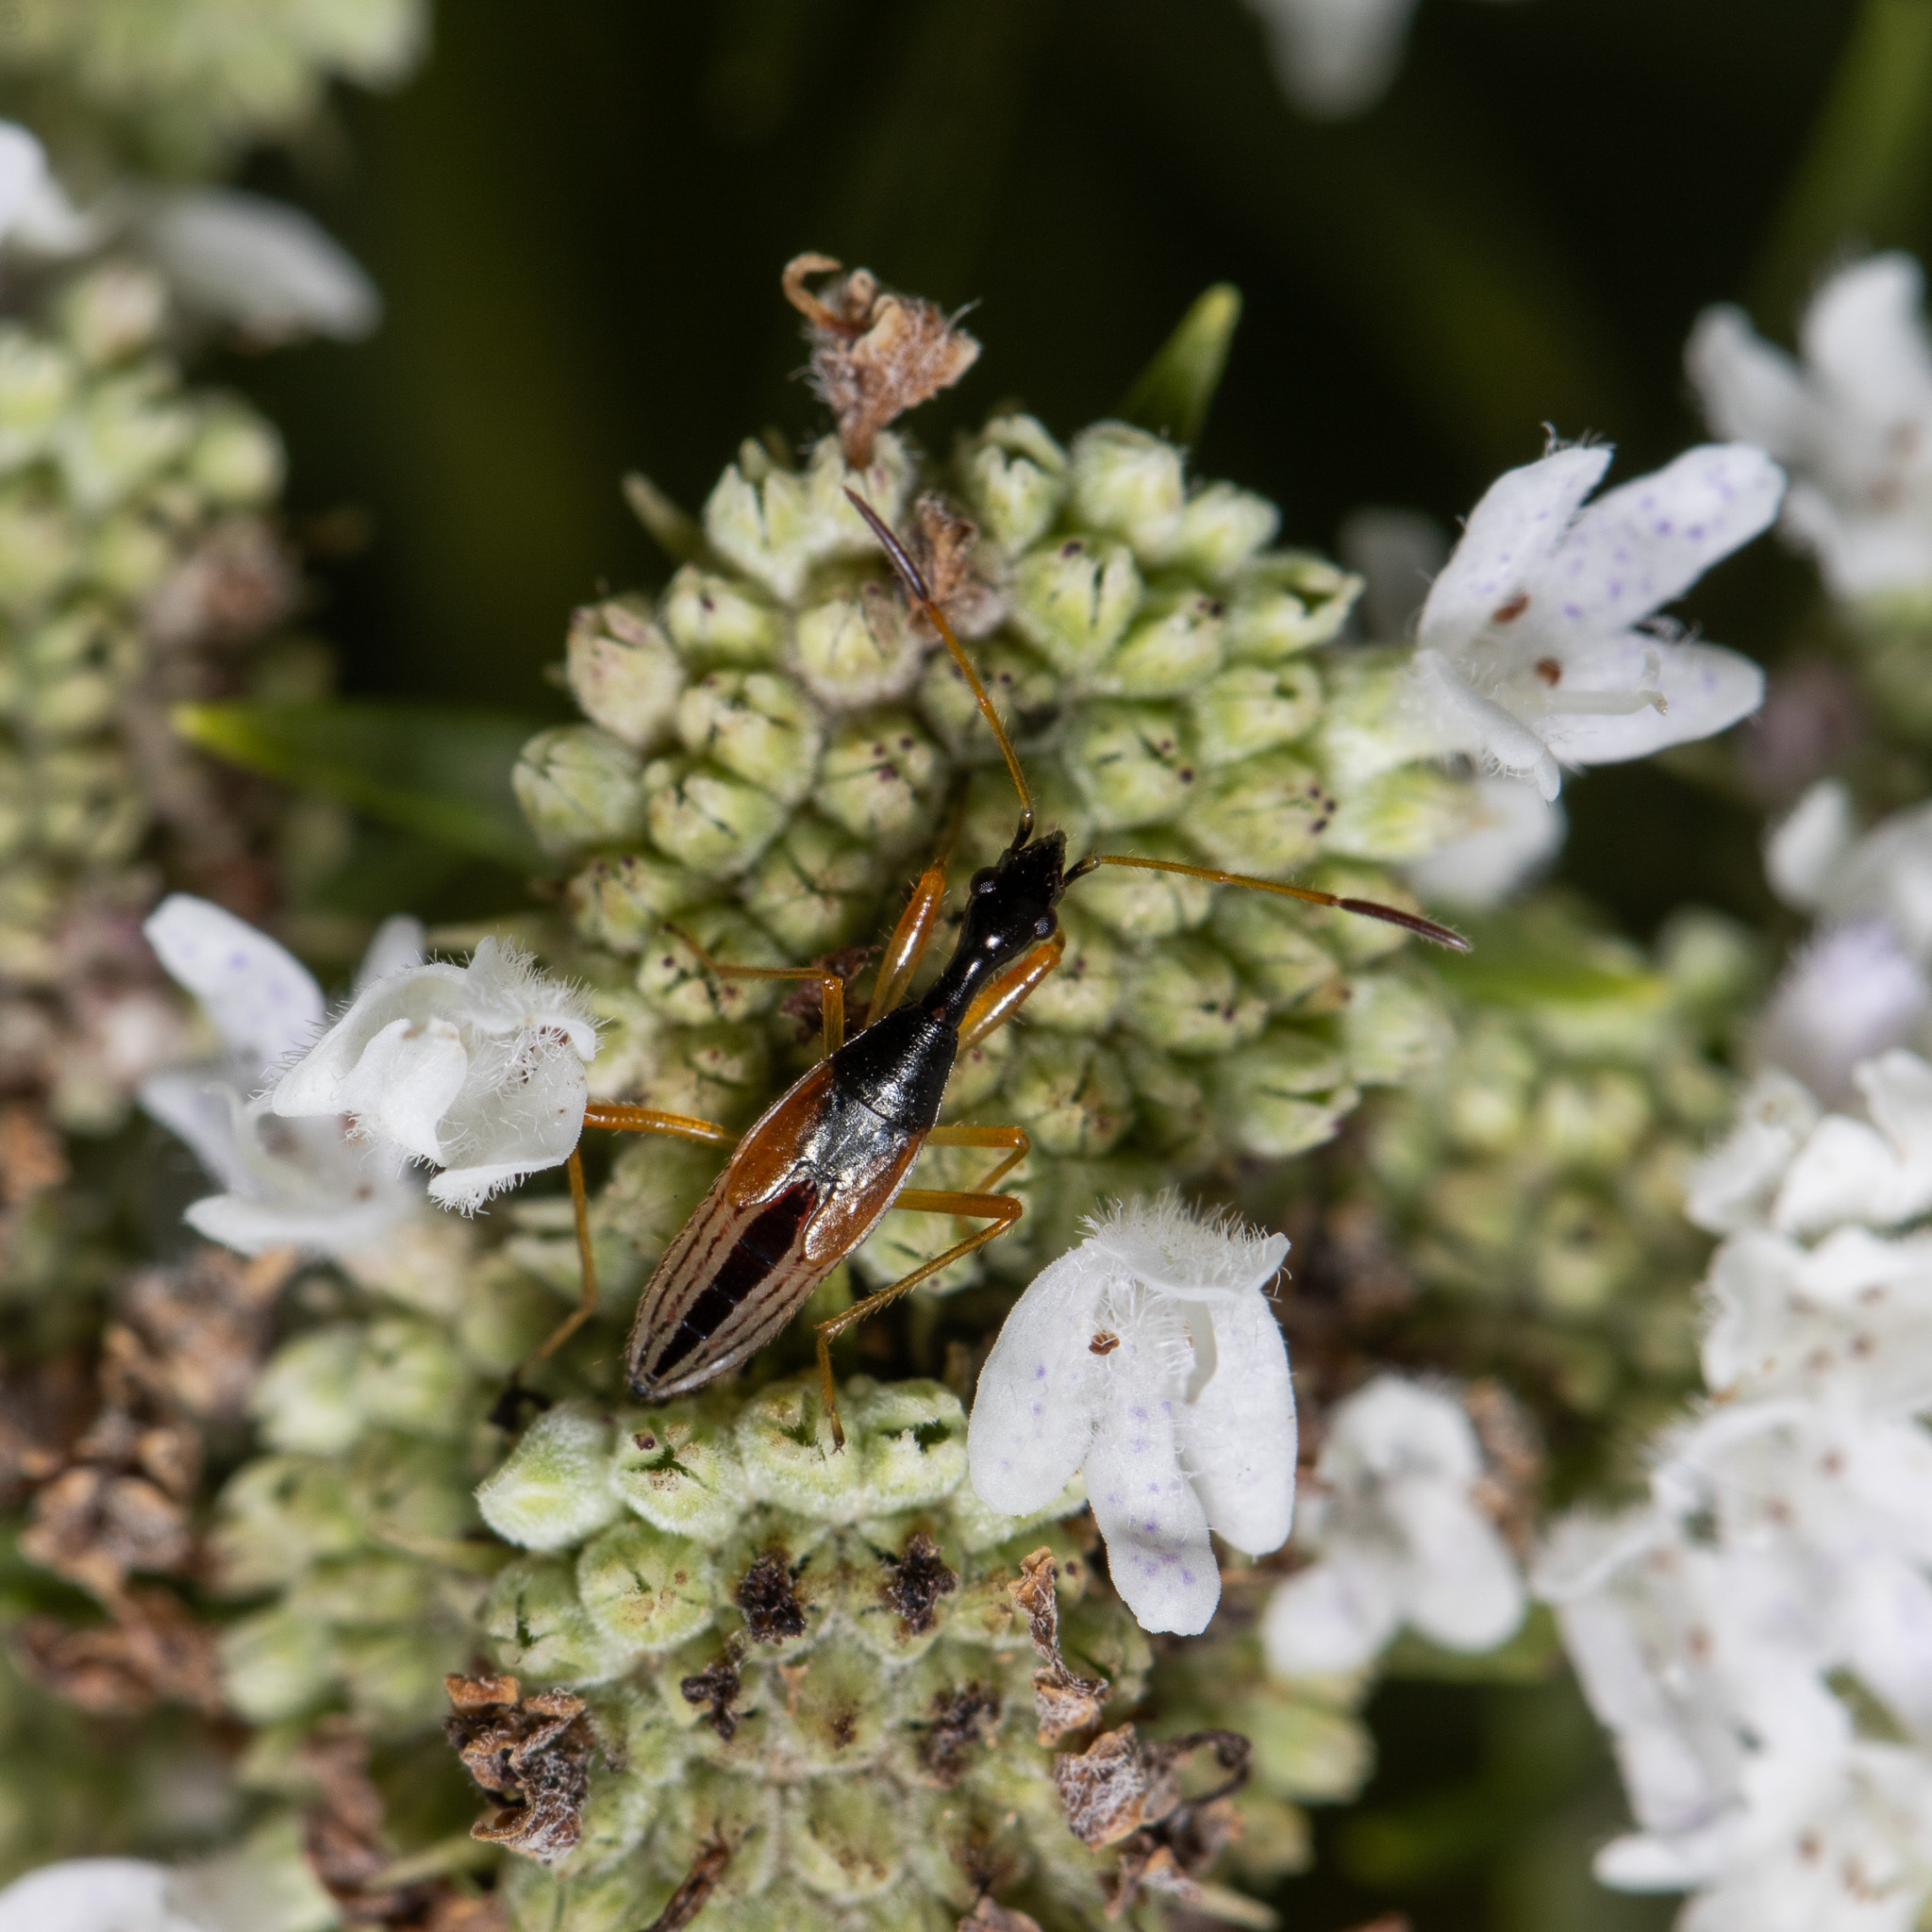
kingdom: Animalia
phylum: Arthropoda
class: Insecta
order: Hemiptera
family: Rhyparochromidae
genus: Myodocha
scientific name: Myodocha serripes
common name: Long-necked seed bug
